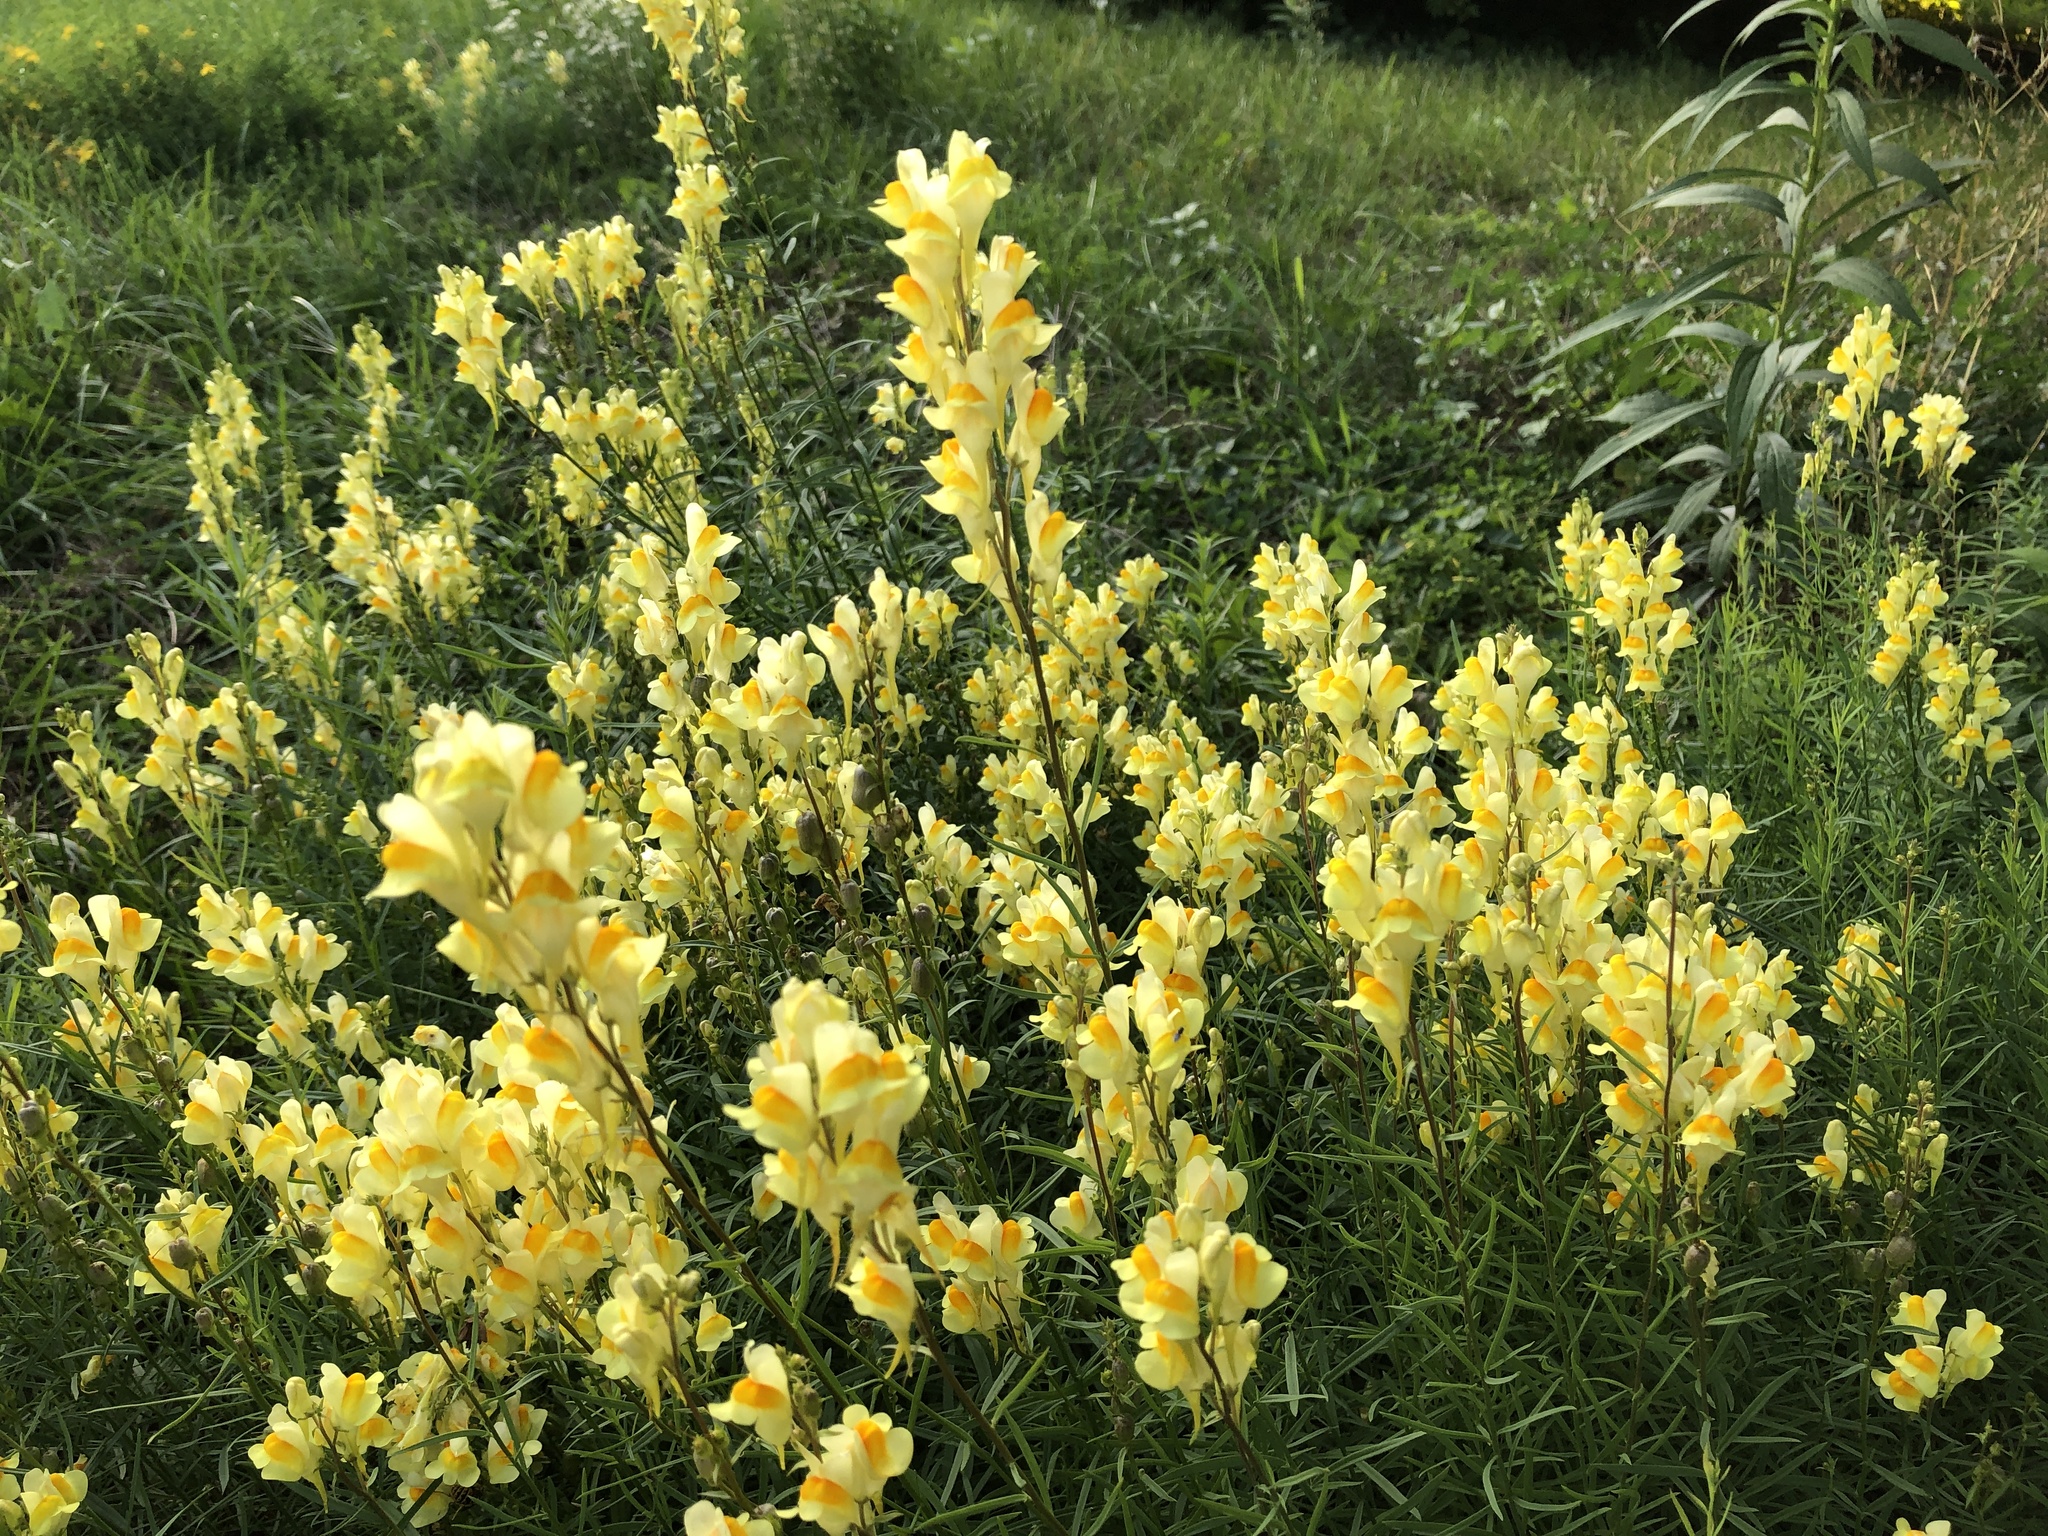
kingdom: Plantae
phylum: Tracheophyta
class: Magnoliopsida
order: Lamiales
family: Plantaginaceae
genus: Linaria
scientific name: Linaria vulgaris
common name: Butter and eggs
